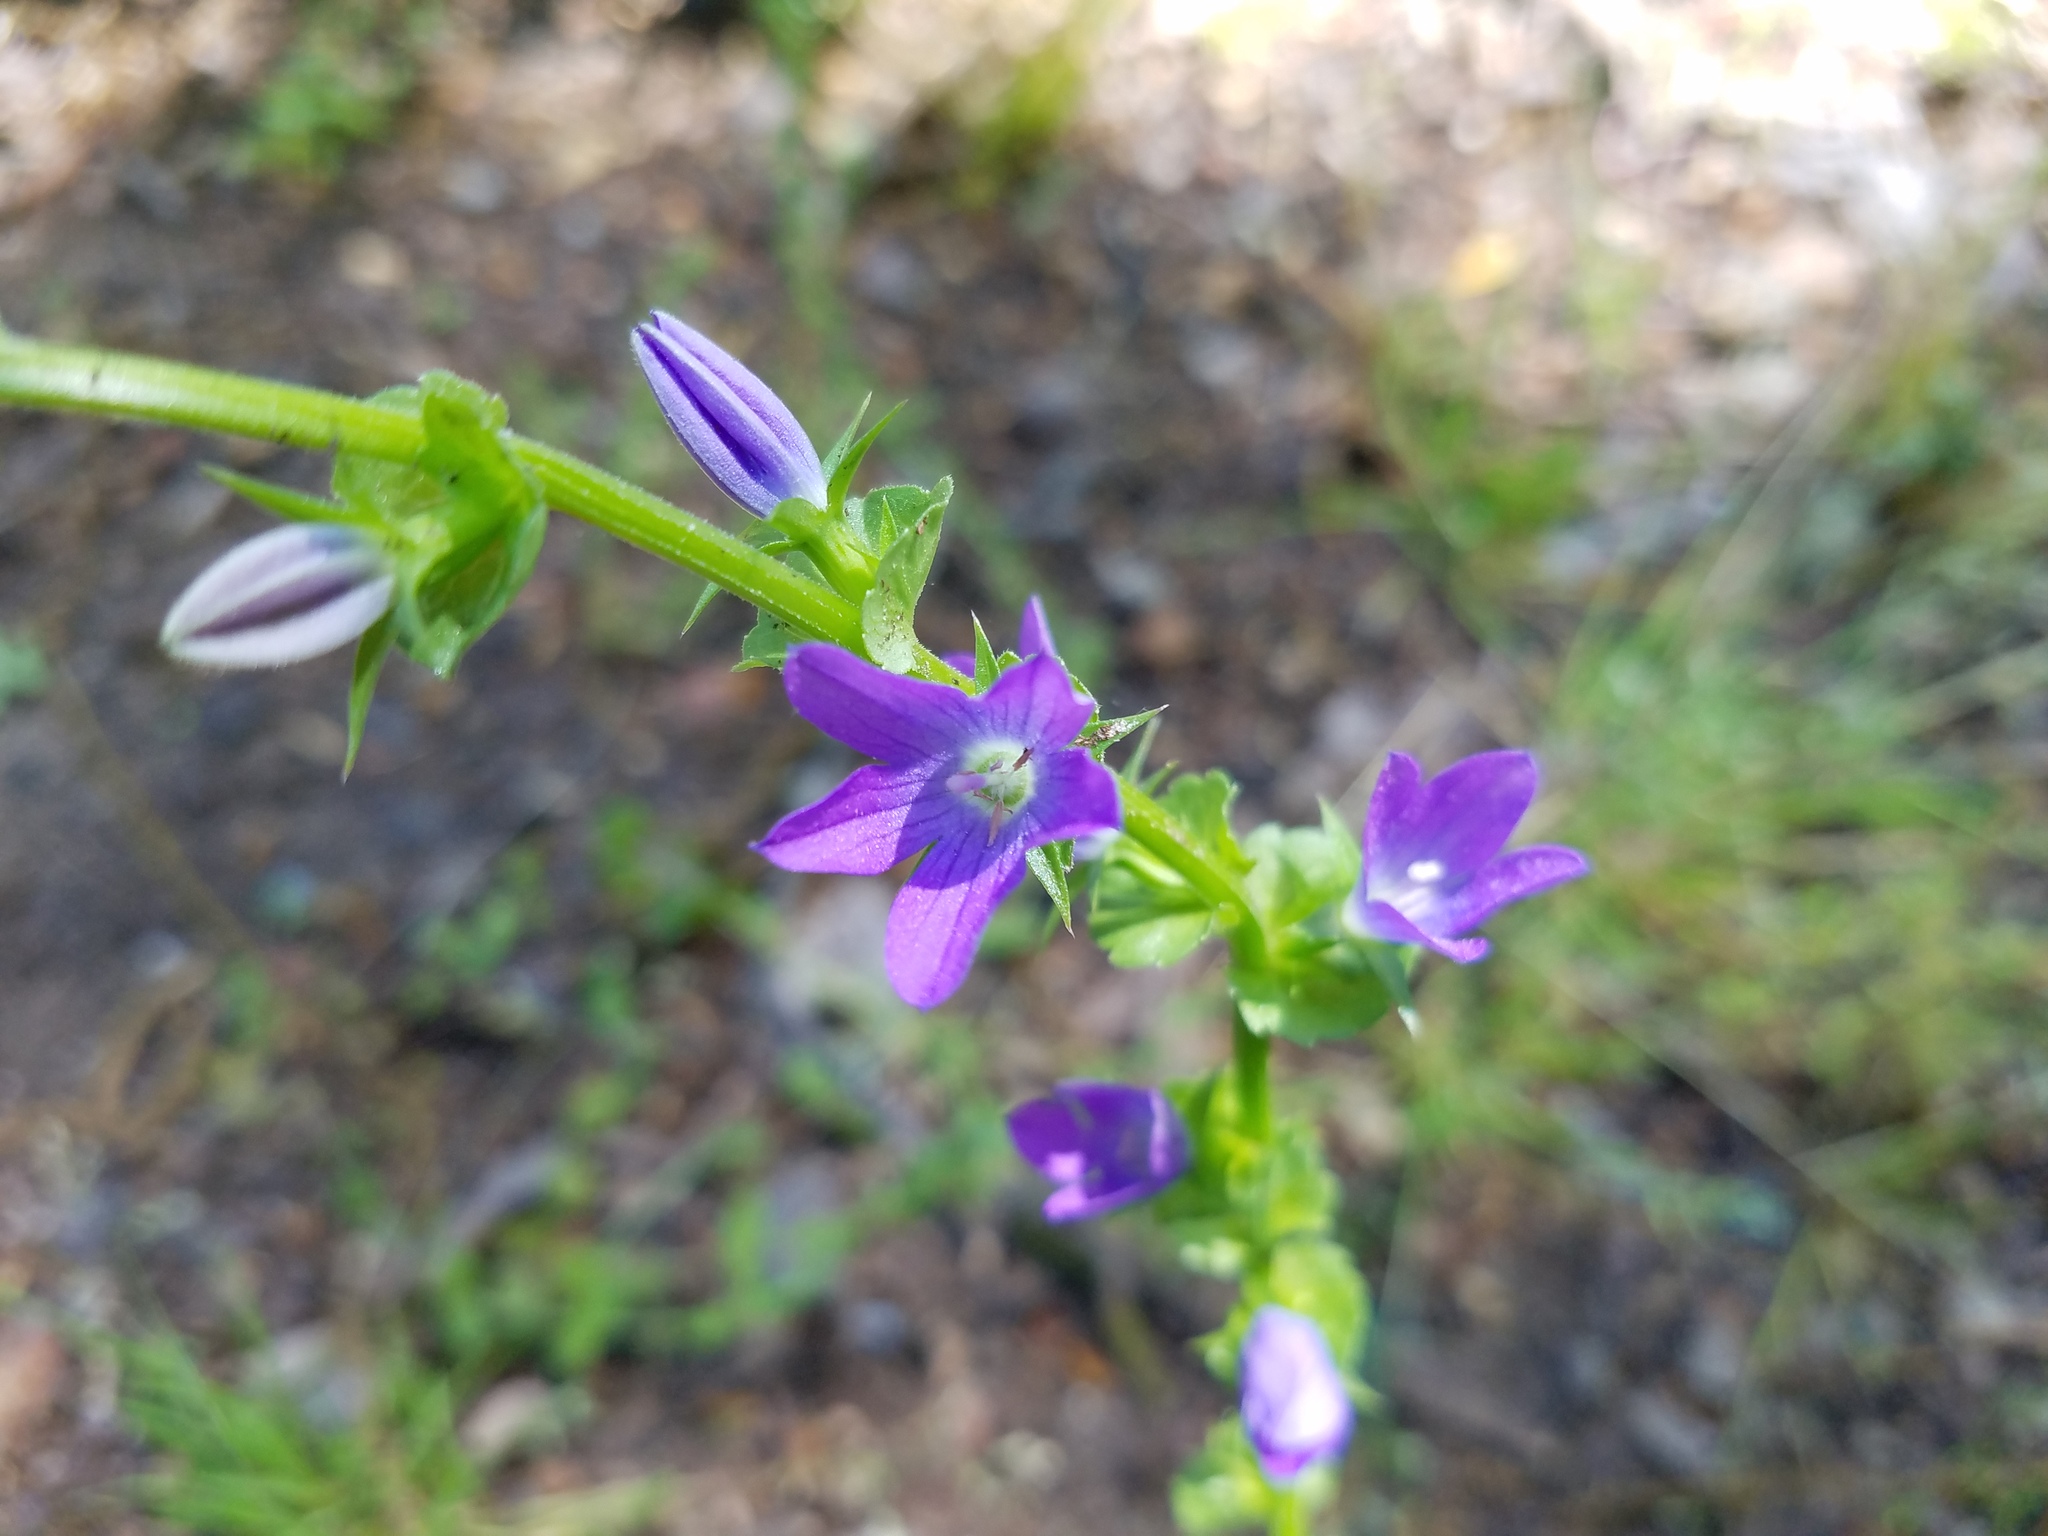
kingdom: Plantae
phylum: Tracheophyta
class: Magnoliopsida
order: Asterales
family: Campanulaceae
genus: Triodanis
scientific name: Triodanis perfoliata
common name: Clasping venus' looking-glass
